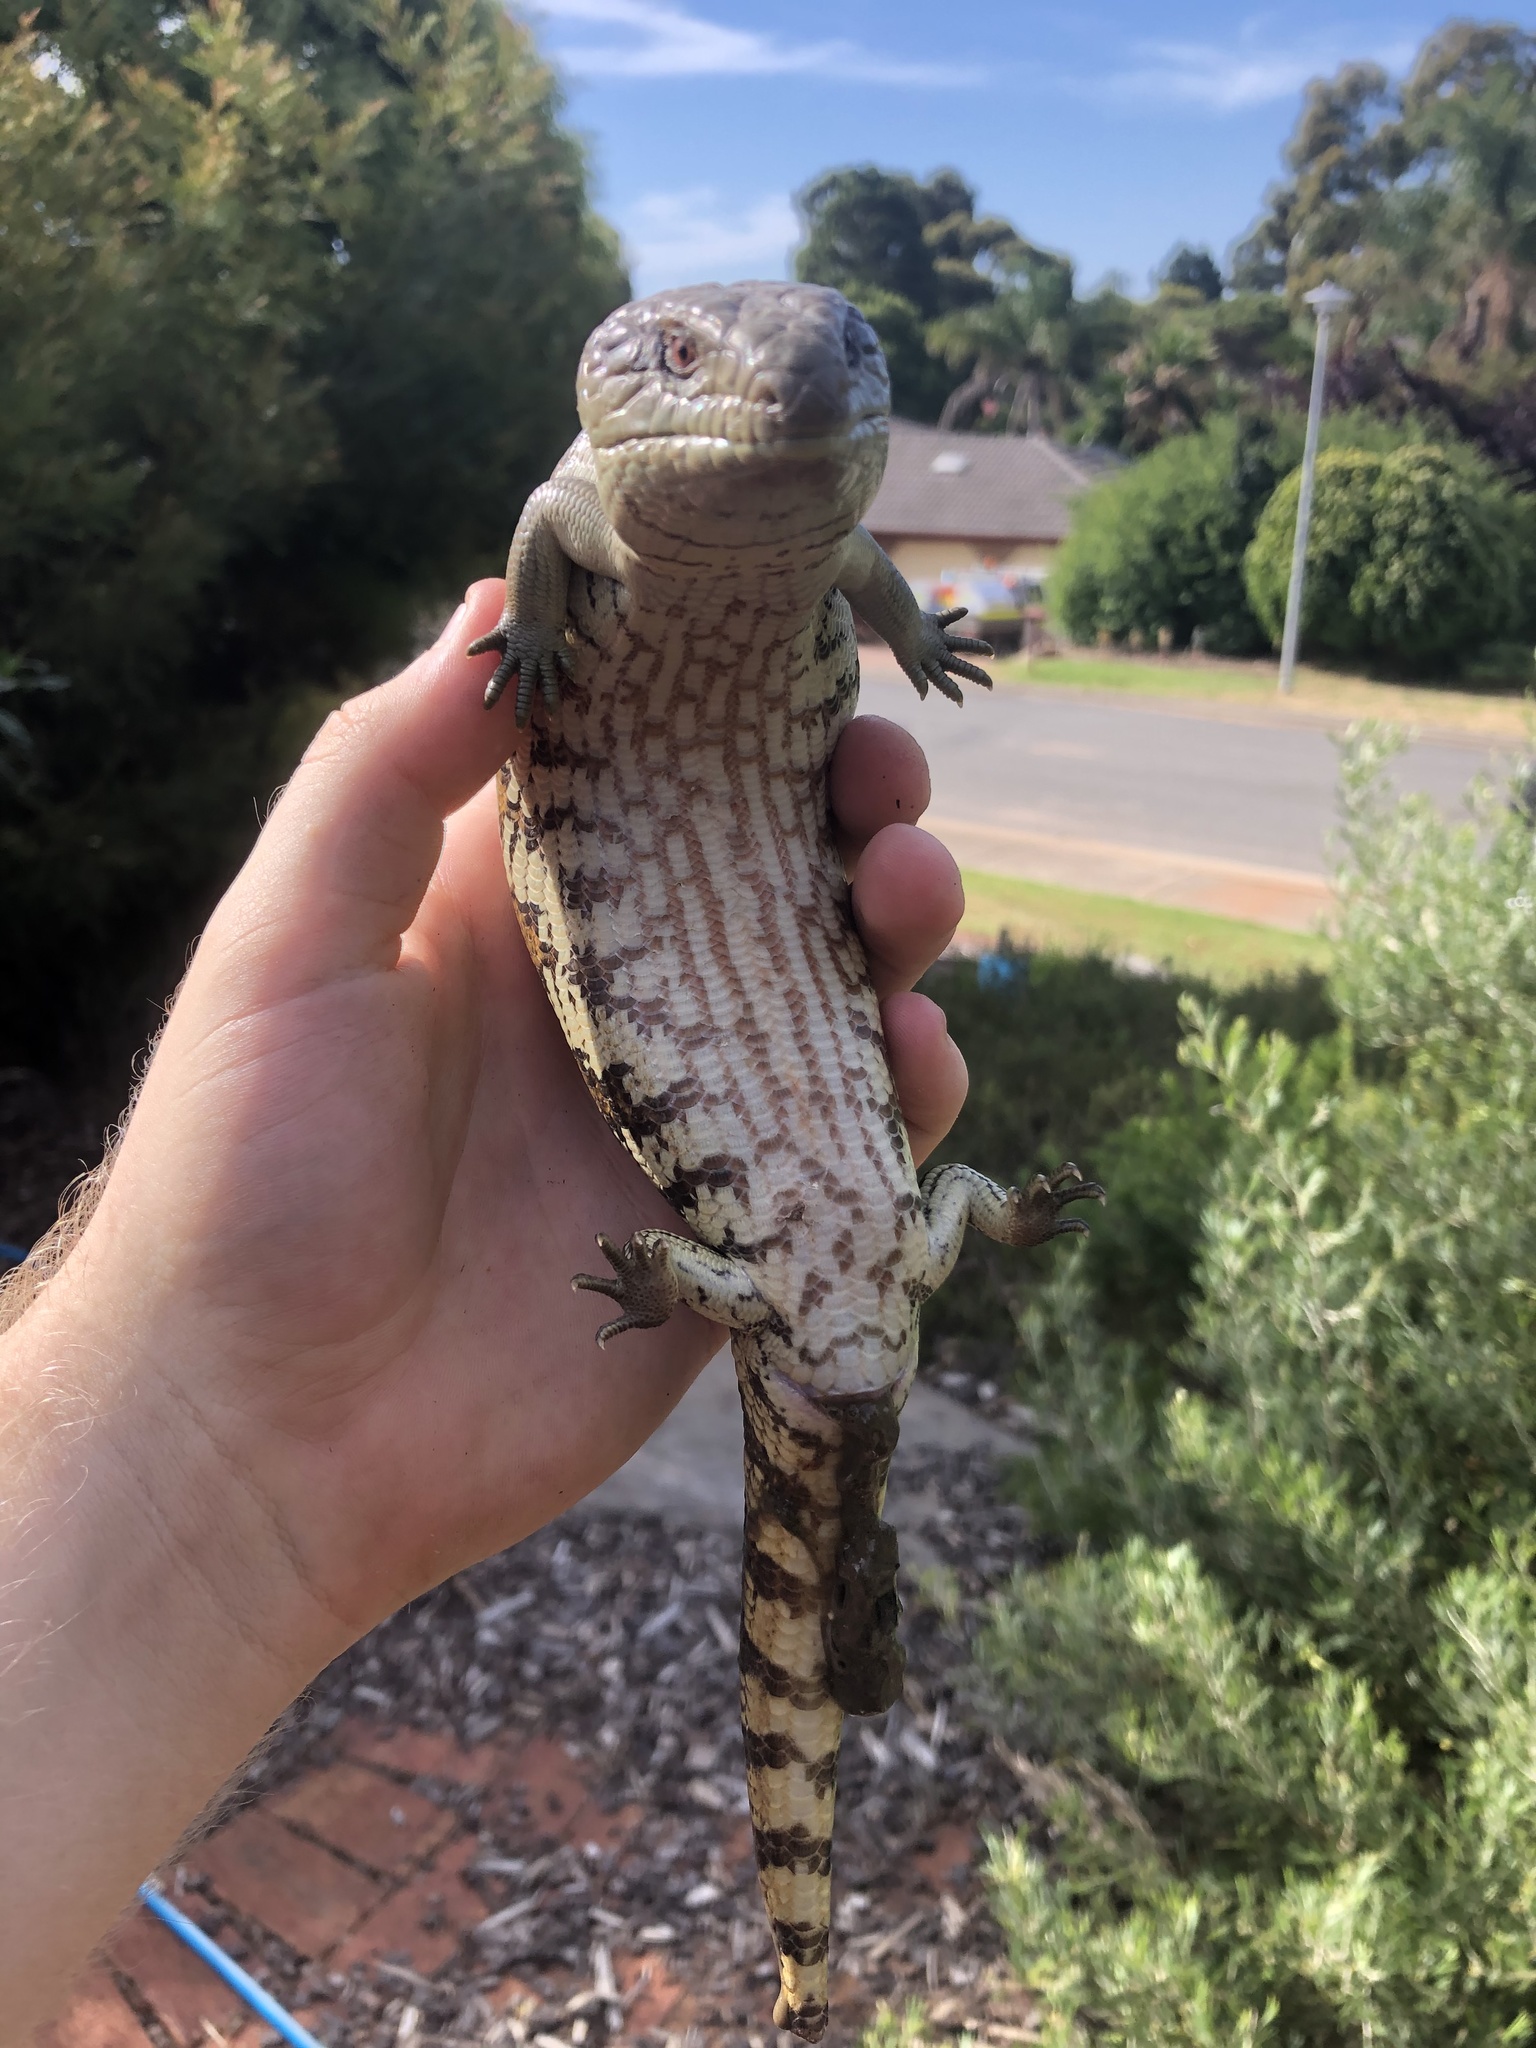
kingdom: Animalia
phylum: Chordata
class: Squamata
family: Scincidae
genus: Tiliqua
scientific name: Tiliqua scincoides
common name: Common bluetongue
